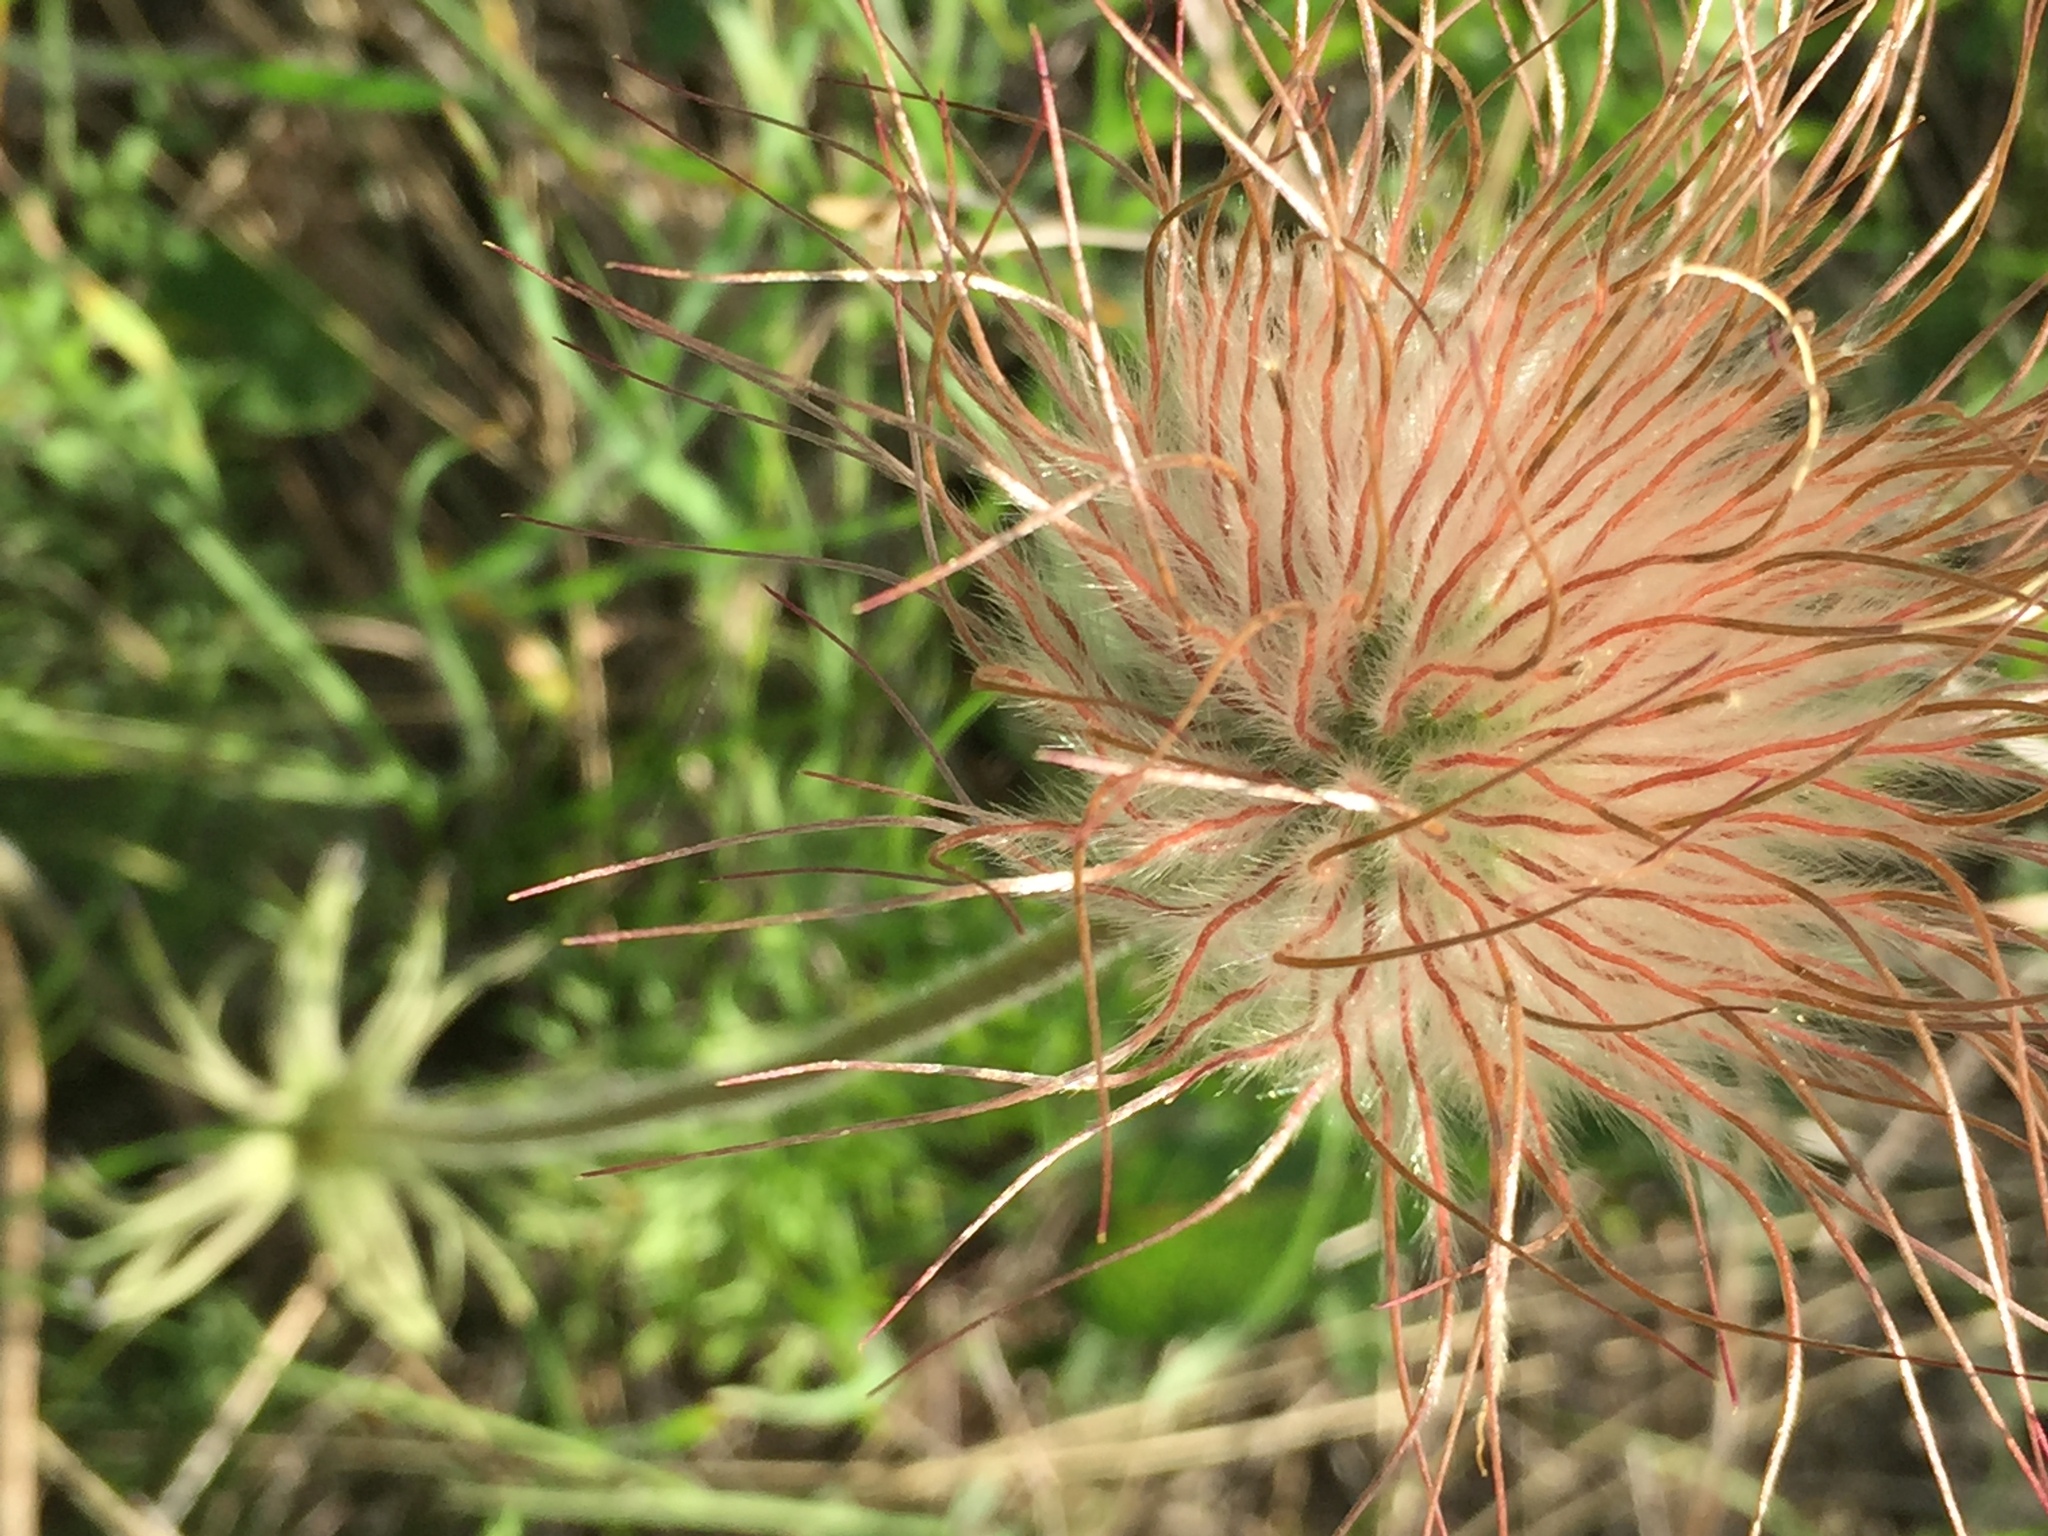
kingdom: Plantae
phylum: Tracheophyta
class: Magnoliopsida
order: Ranunculales
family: Ranunculaceae
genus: Pulsatilla
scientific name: Pulsatilla pratensis
